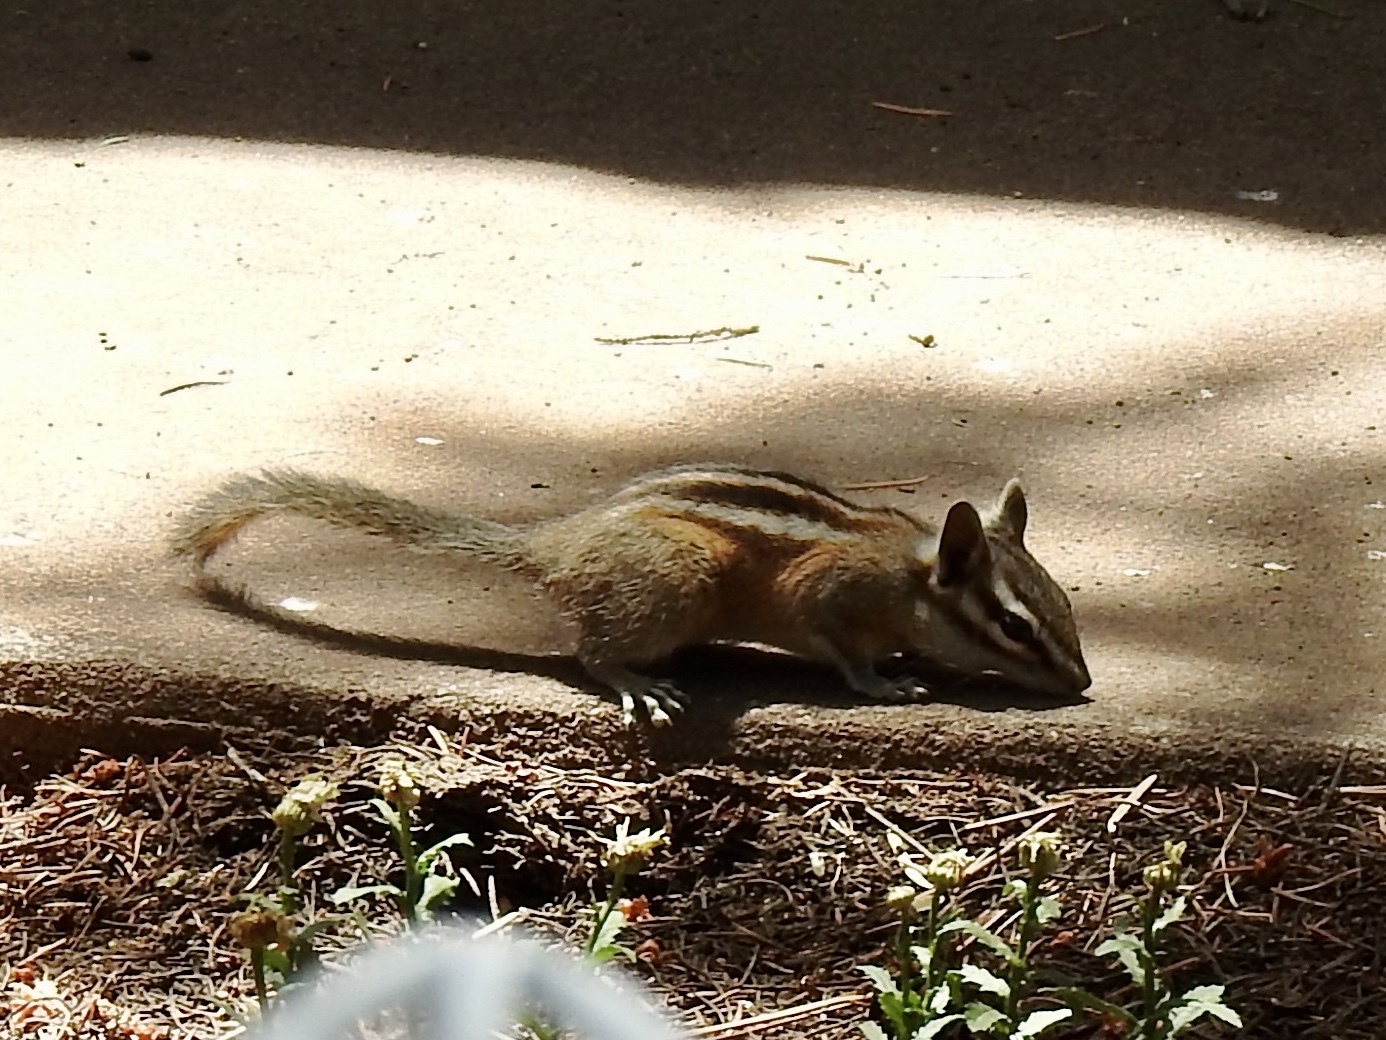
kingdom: Animalia
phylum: Chordata
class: Mammalia
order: Rodentia
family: Sciuridae
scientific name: Sciuridae
